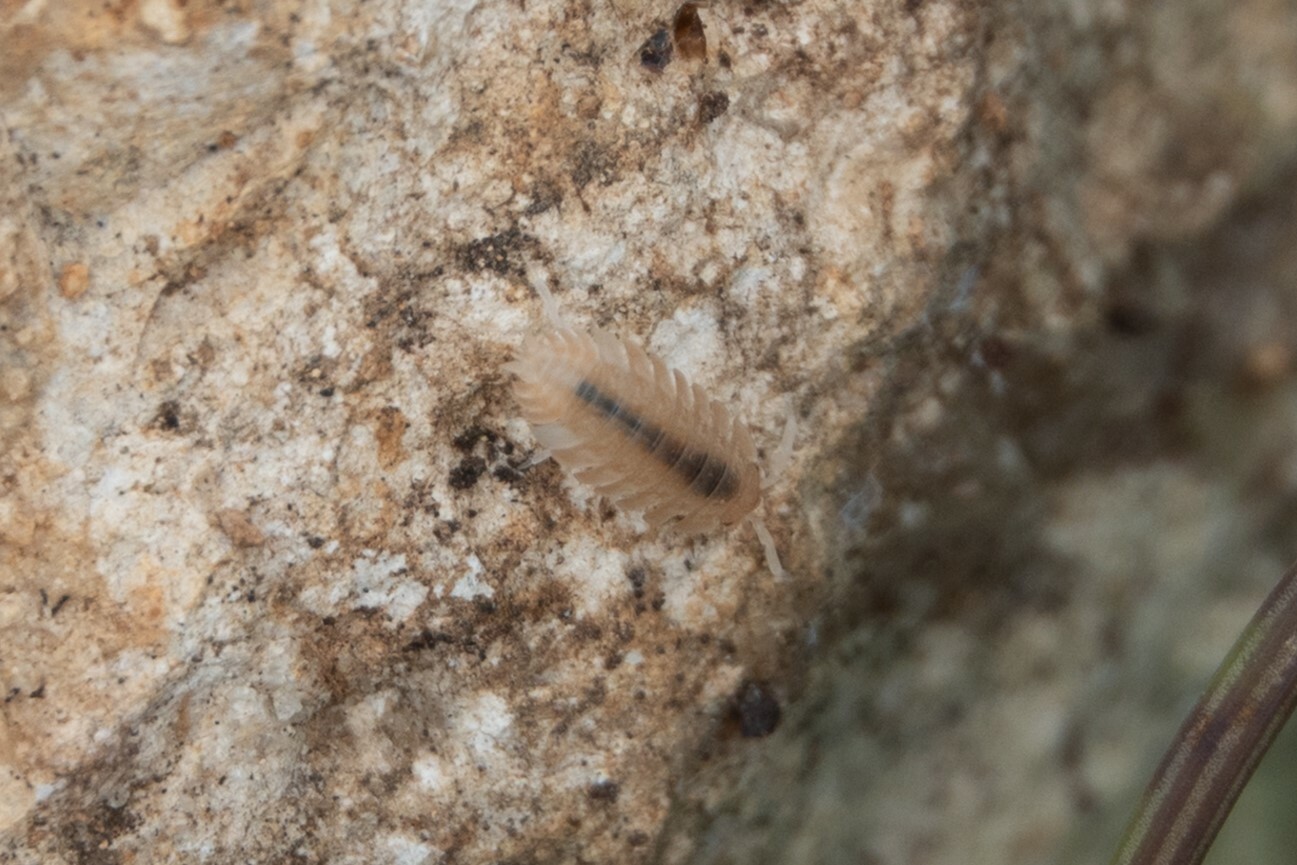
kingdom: Animalia
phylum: Arthropoda
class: Malacostraca
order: Isopoda
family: Porcellionidae
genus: Lucasius
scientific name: Lucasius pallidus
